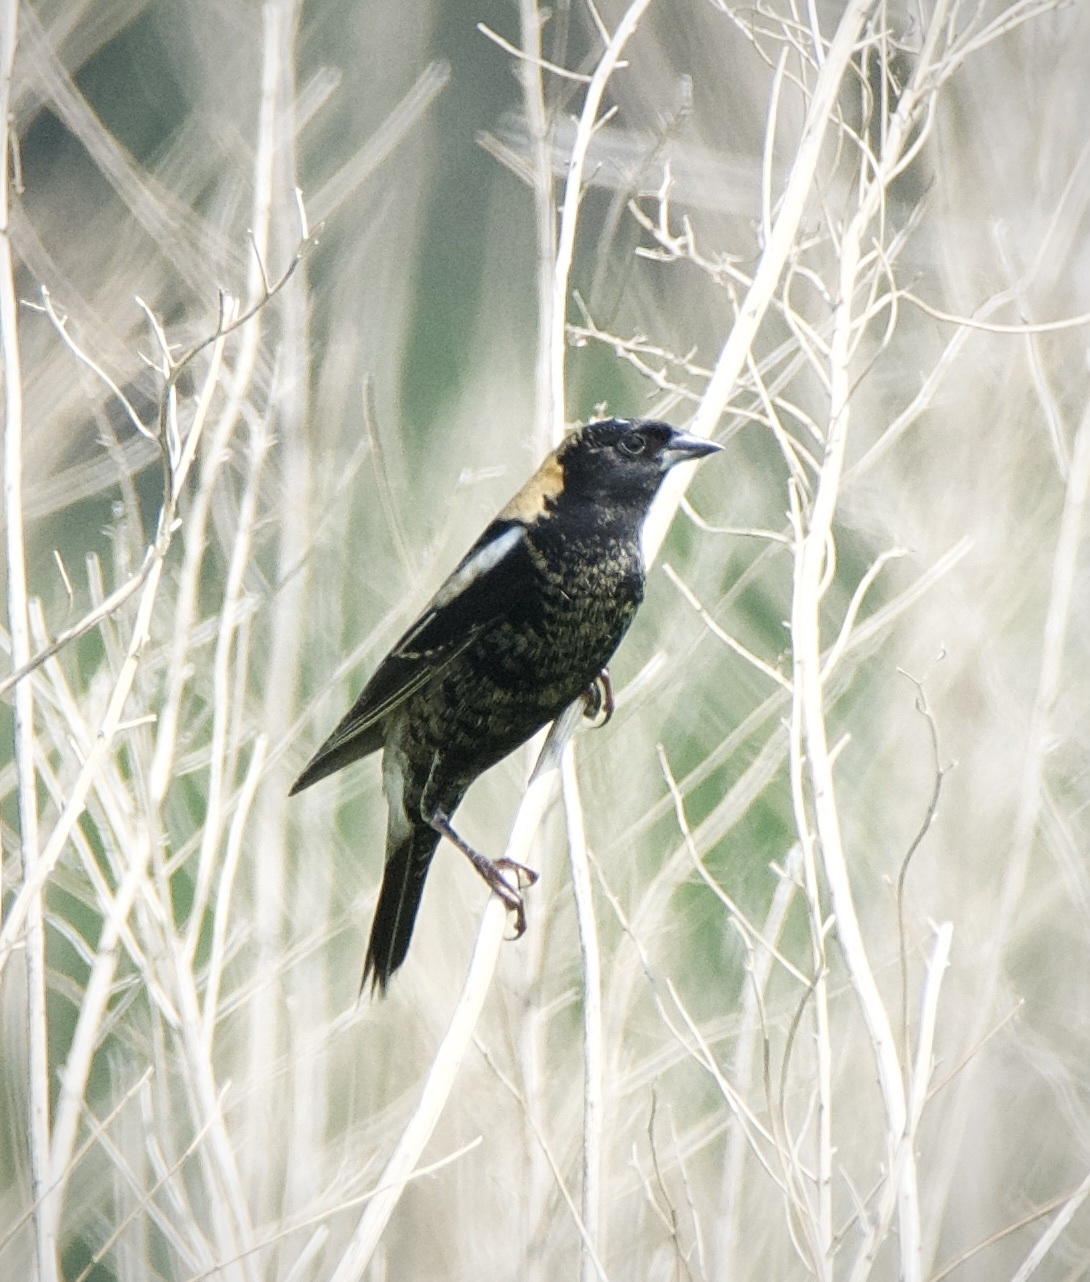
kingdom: Animalia
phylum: Chordata
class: Aves
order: Passeriformes
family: Icteridae
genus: Dolichonyx
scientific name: Dolichonyx oryzivorus
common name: Bobolink
